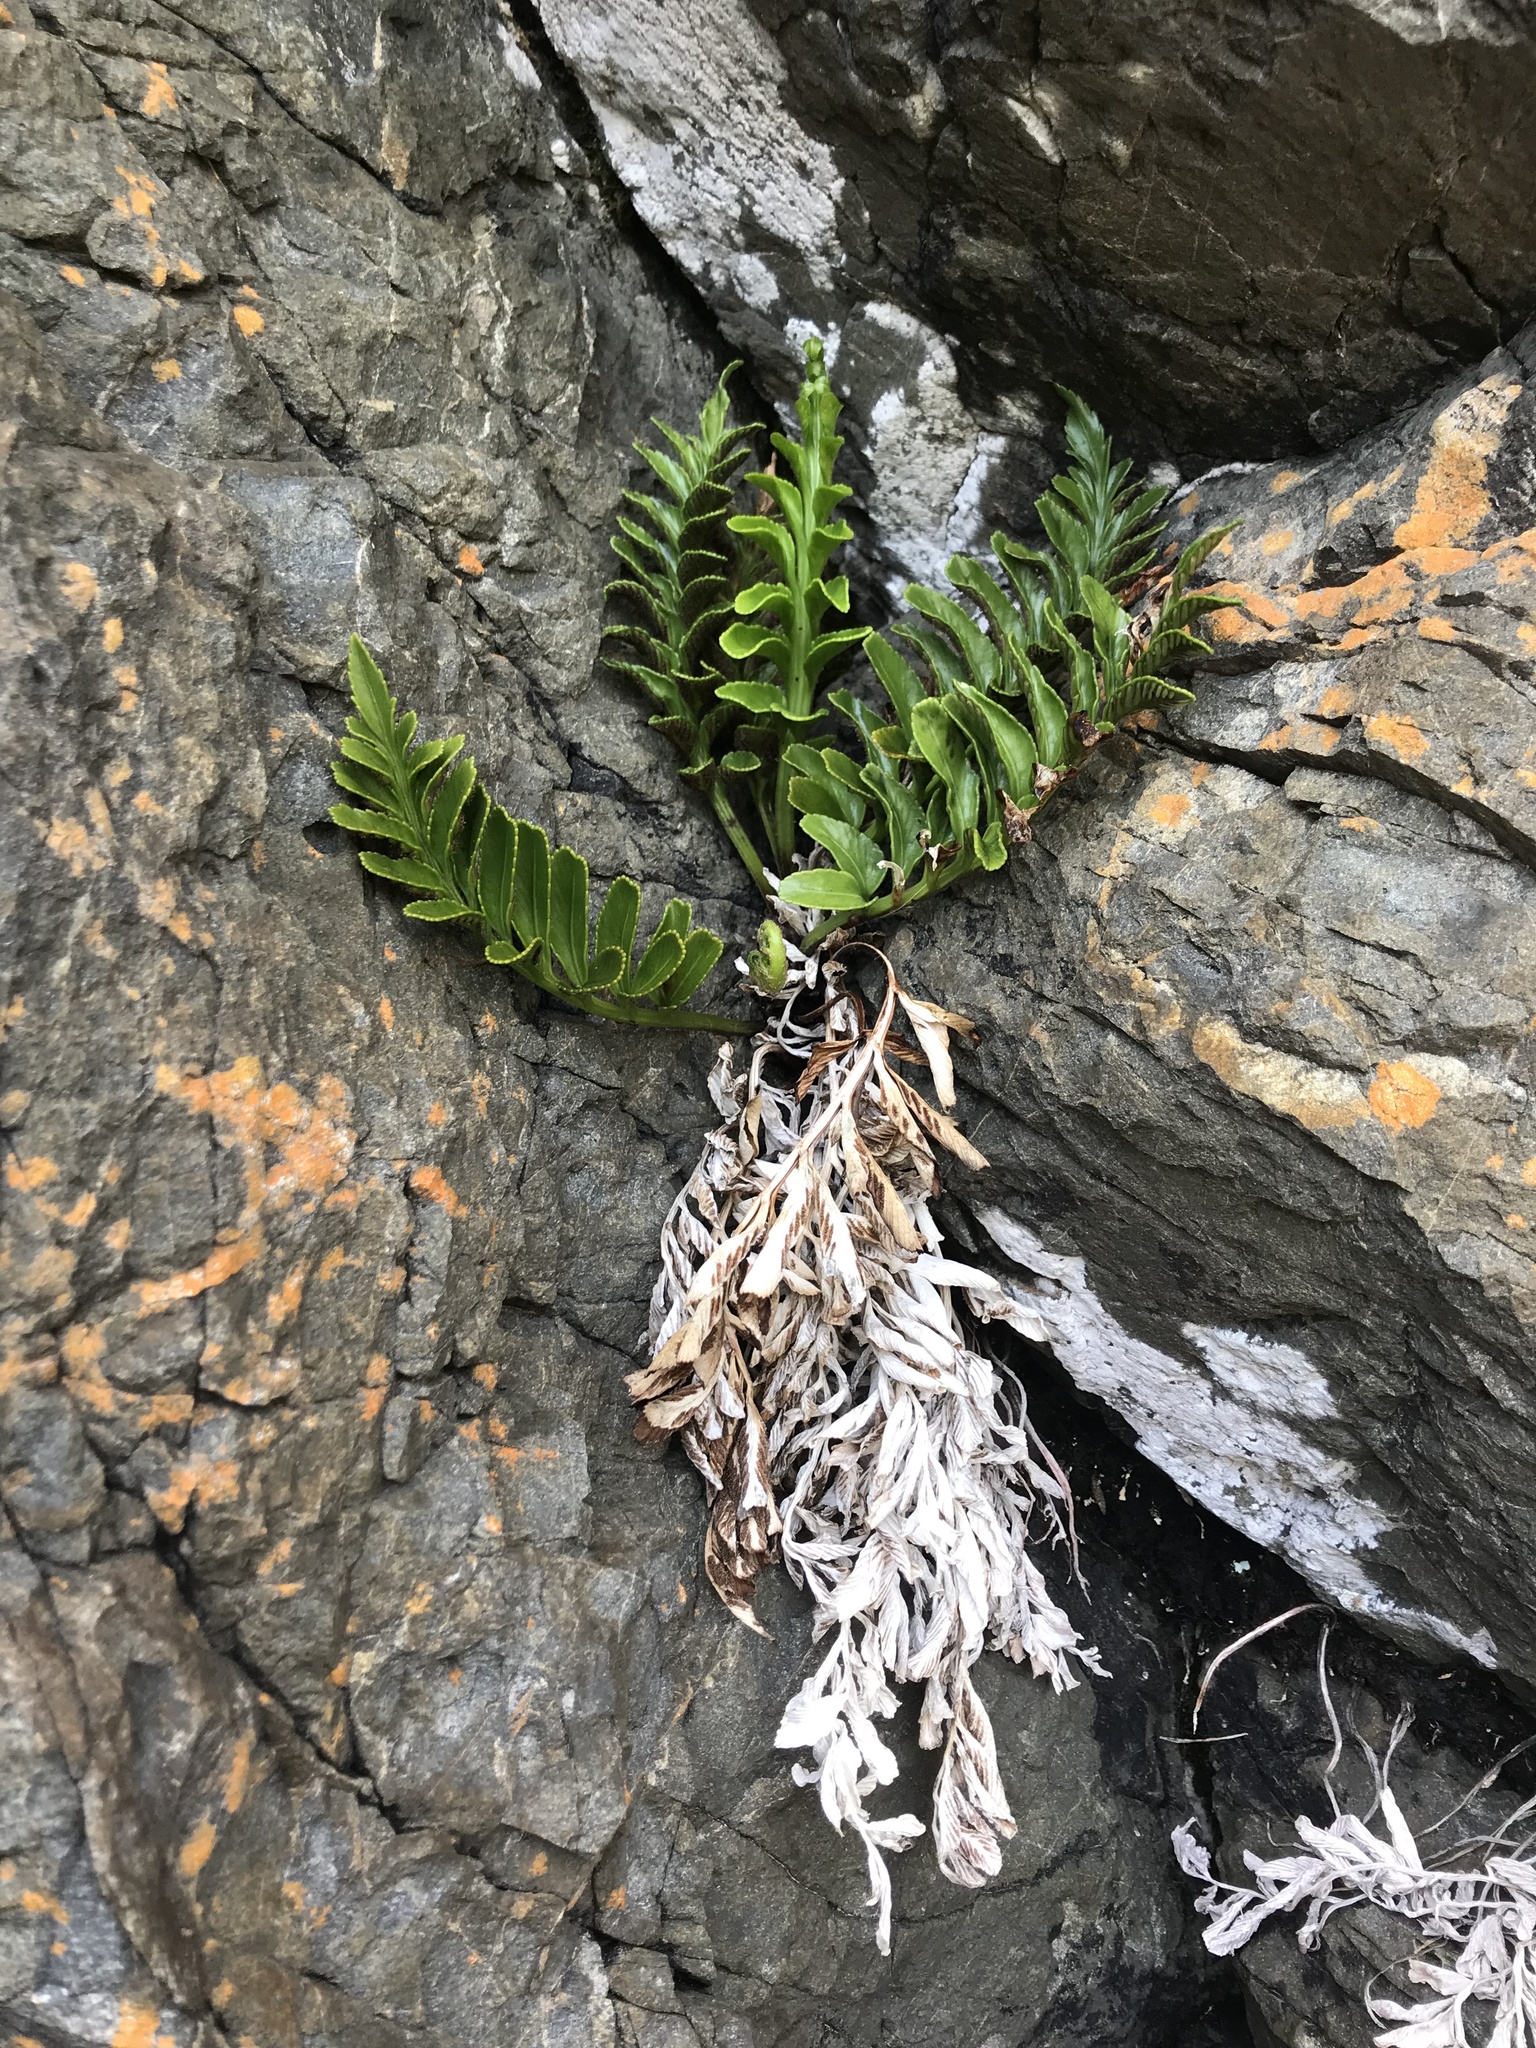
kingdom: Plantae
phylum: Tracheophyta
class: Polypodiopsida
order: Polypodiales
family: Aspleniaceae
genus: Asplenium
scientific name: Asplenium obtusatum
